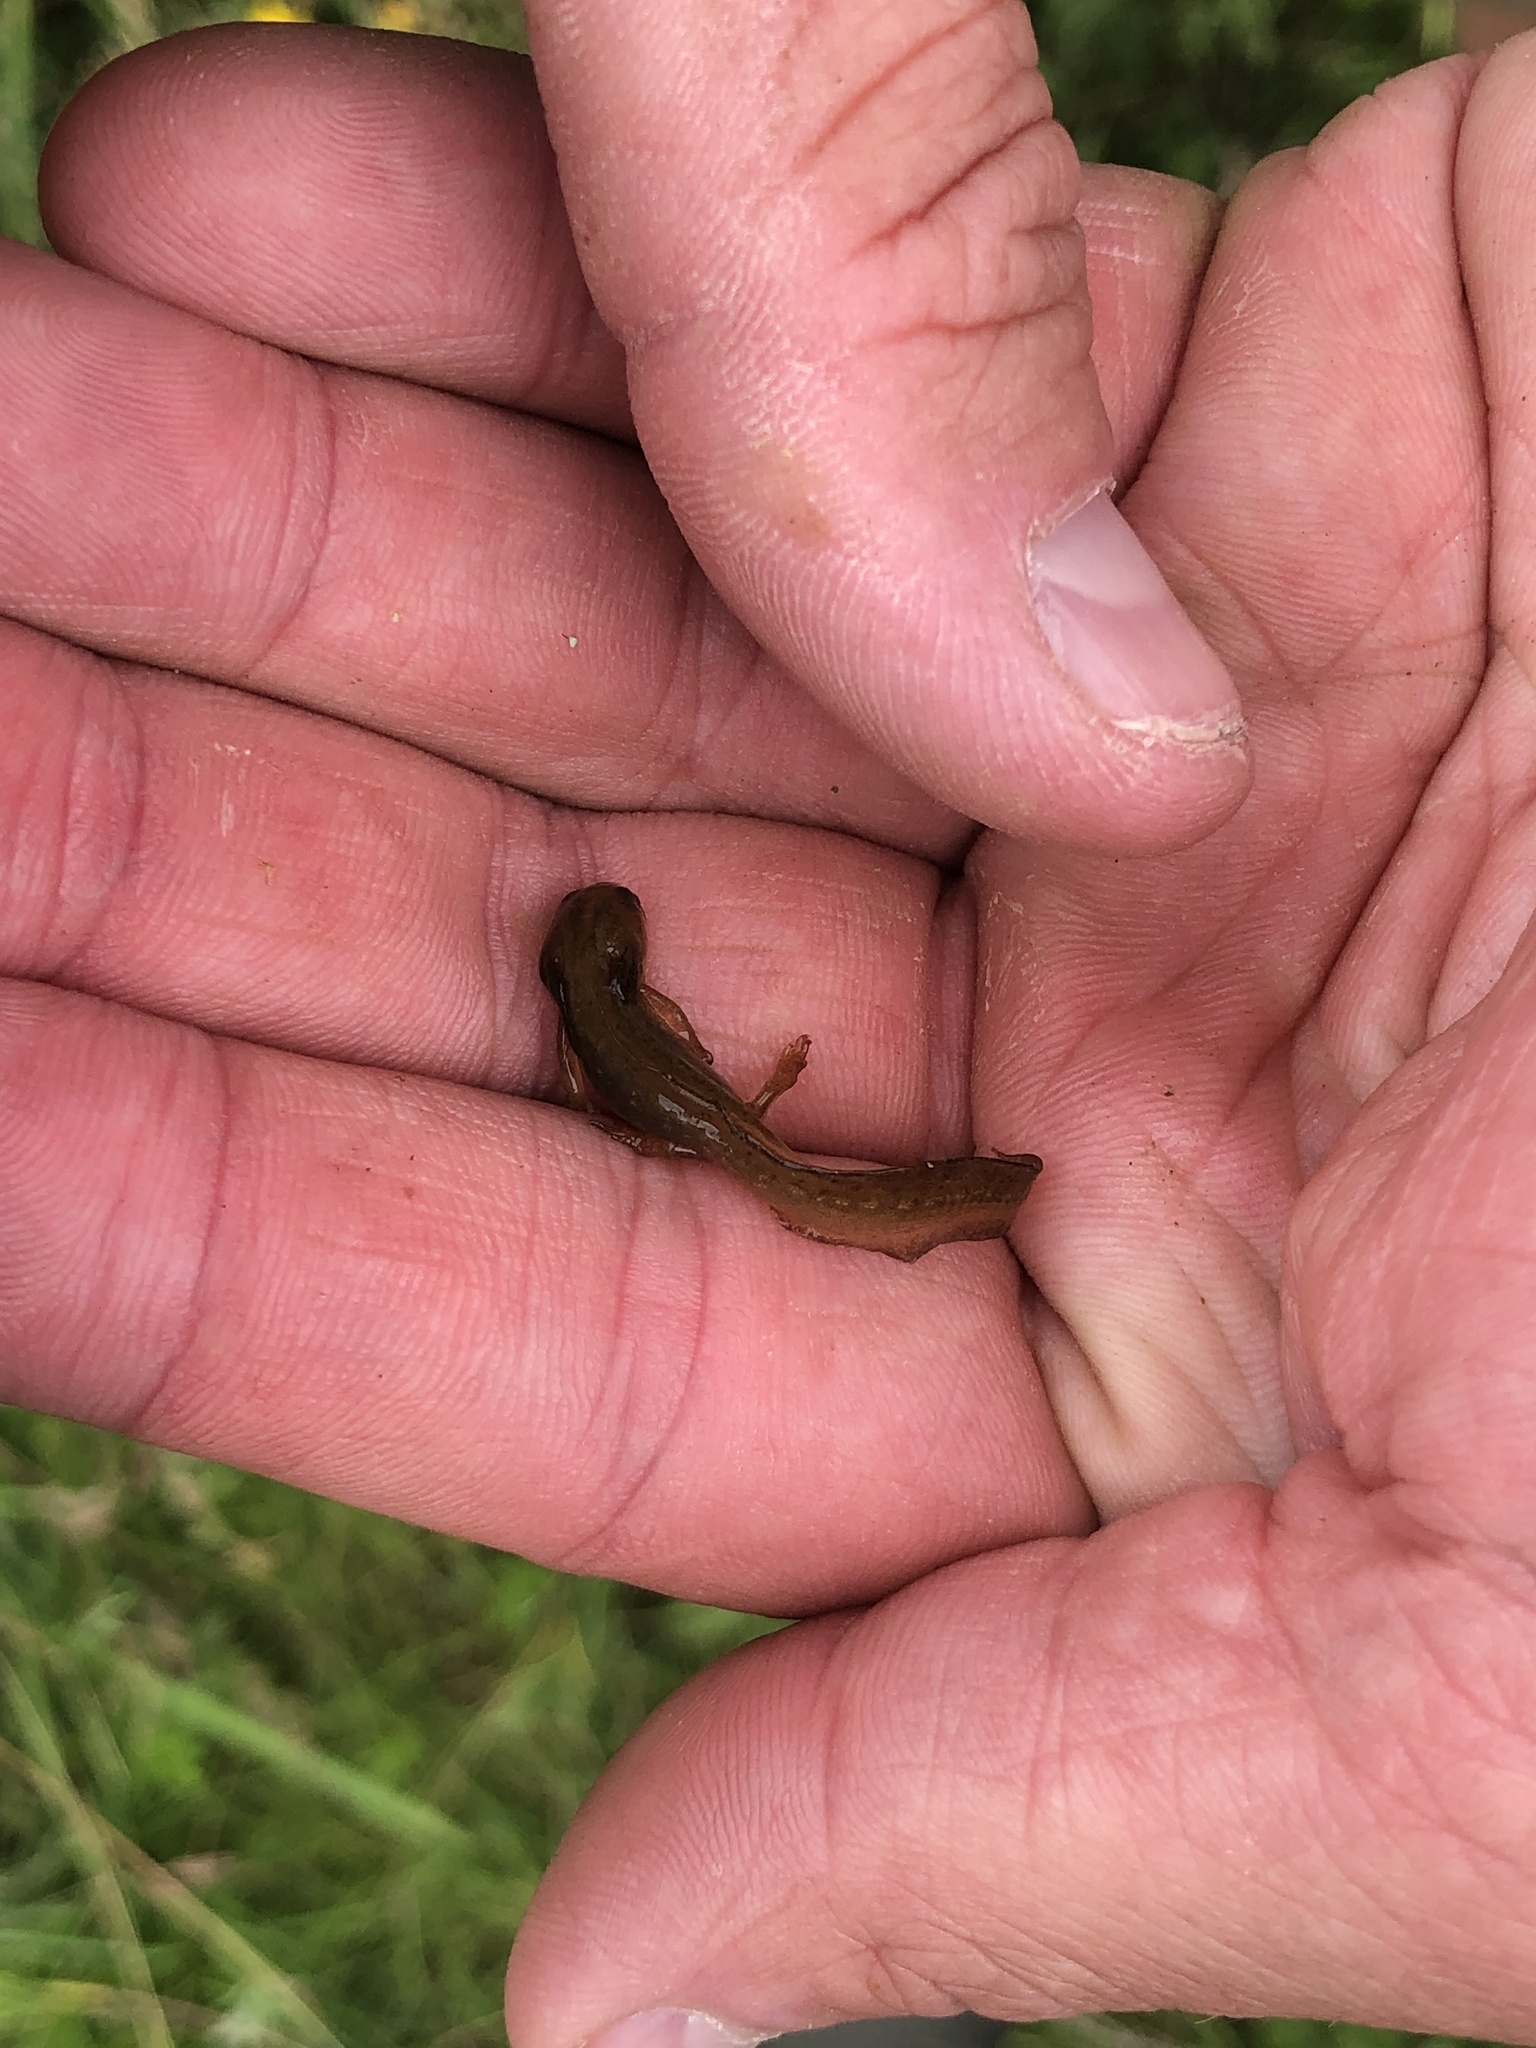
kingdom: Animalia
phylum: Chordata
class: Amphibia
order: Caudata
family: Salamandridae
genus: Lissotriton
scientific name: Lissotriton vulgaris
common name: Smooth newt
